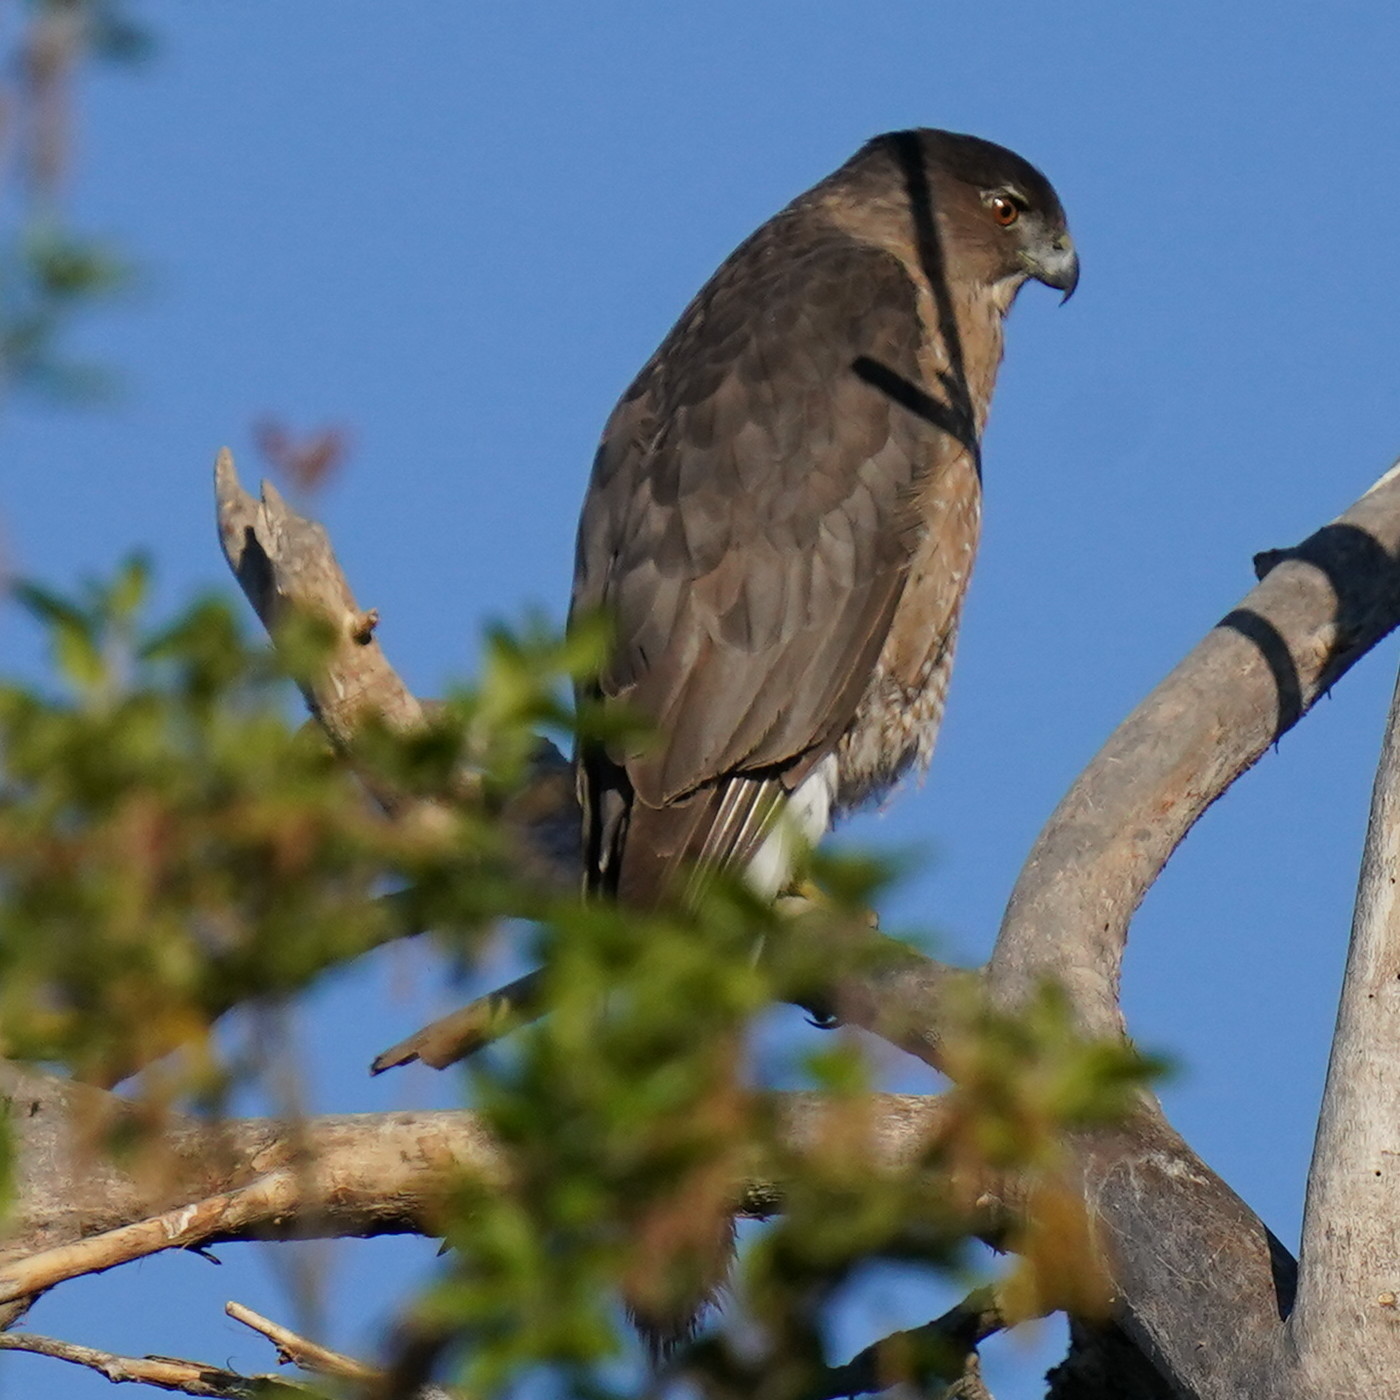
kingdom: Animalia
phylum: Chordata
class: Aves
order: Accipitriformes
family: Accipitridae
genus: Accipiter
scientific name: Accipiter cooperii
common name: Cooper's hawk
